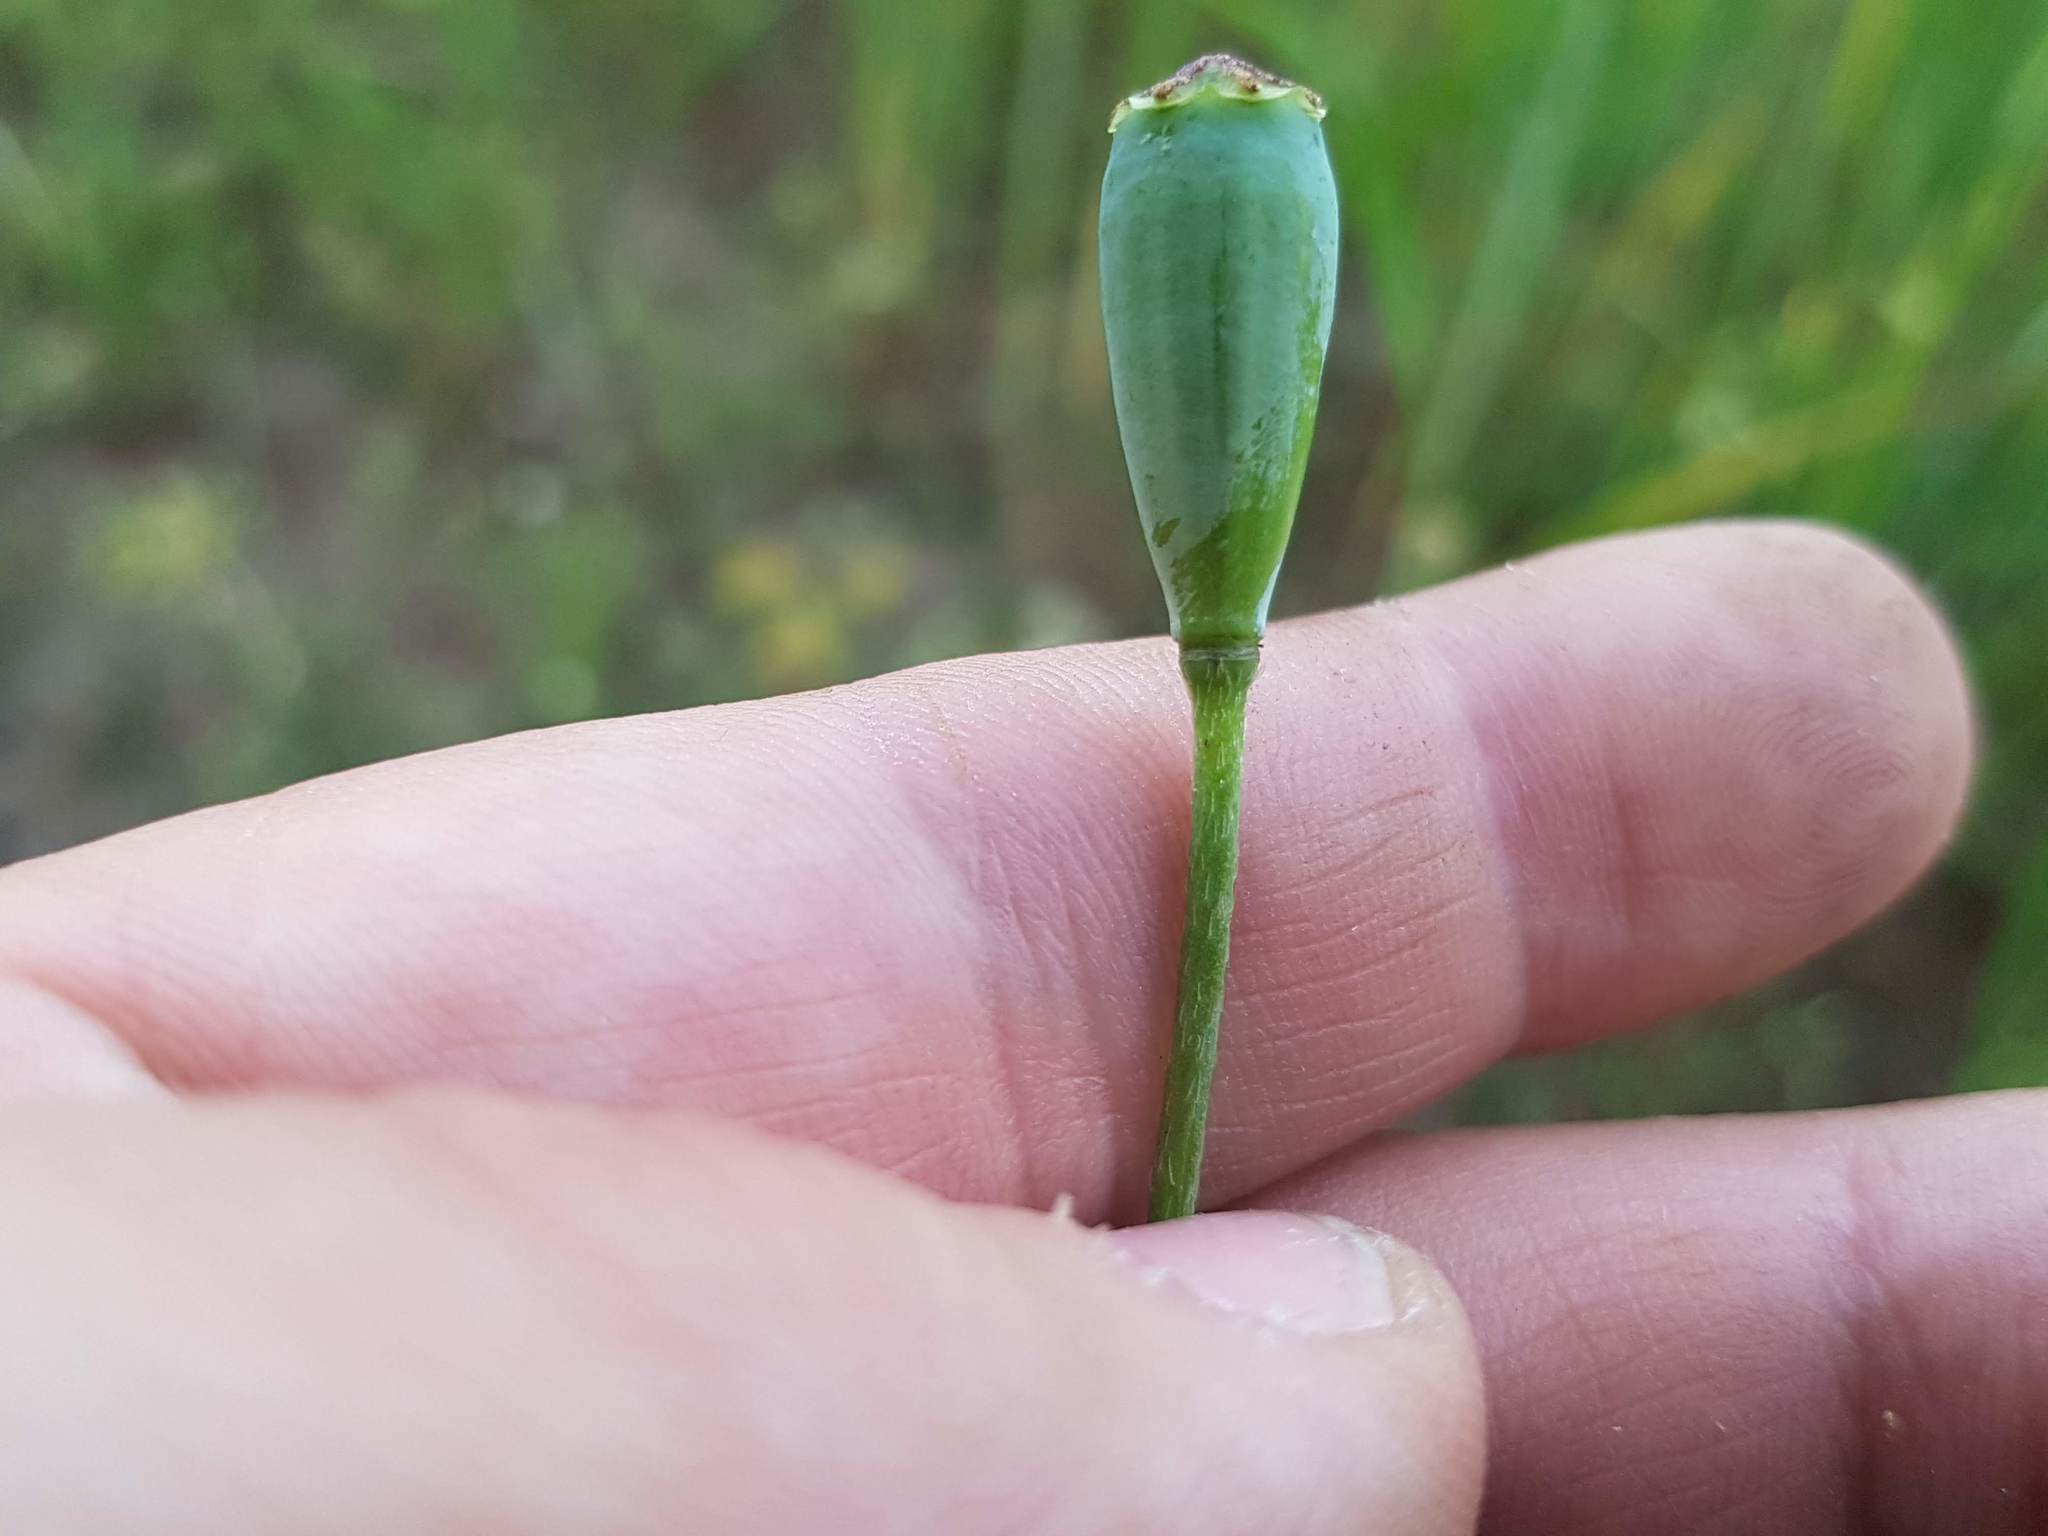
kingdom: Plantae
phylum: Tracheophyta
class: Magnoliopsida
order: Ranunculales
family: Papaveraceae
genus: Papaver
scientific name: Papaver dubium
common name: Long-headed poppy
